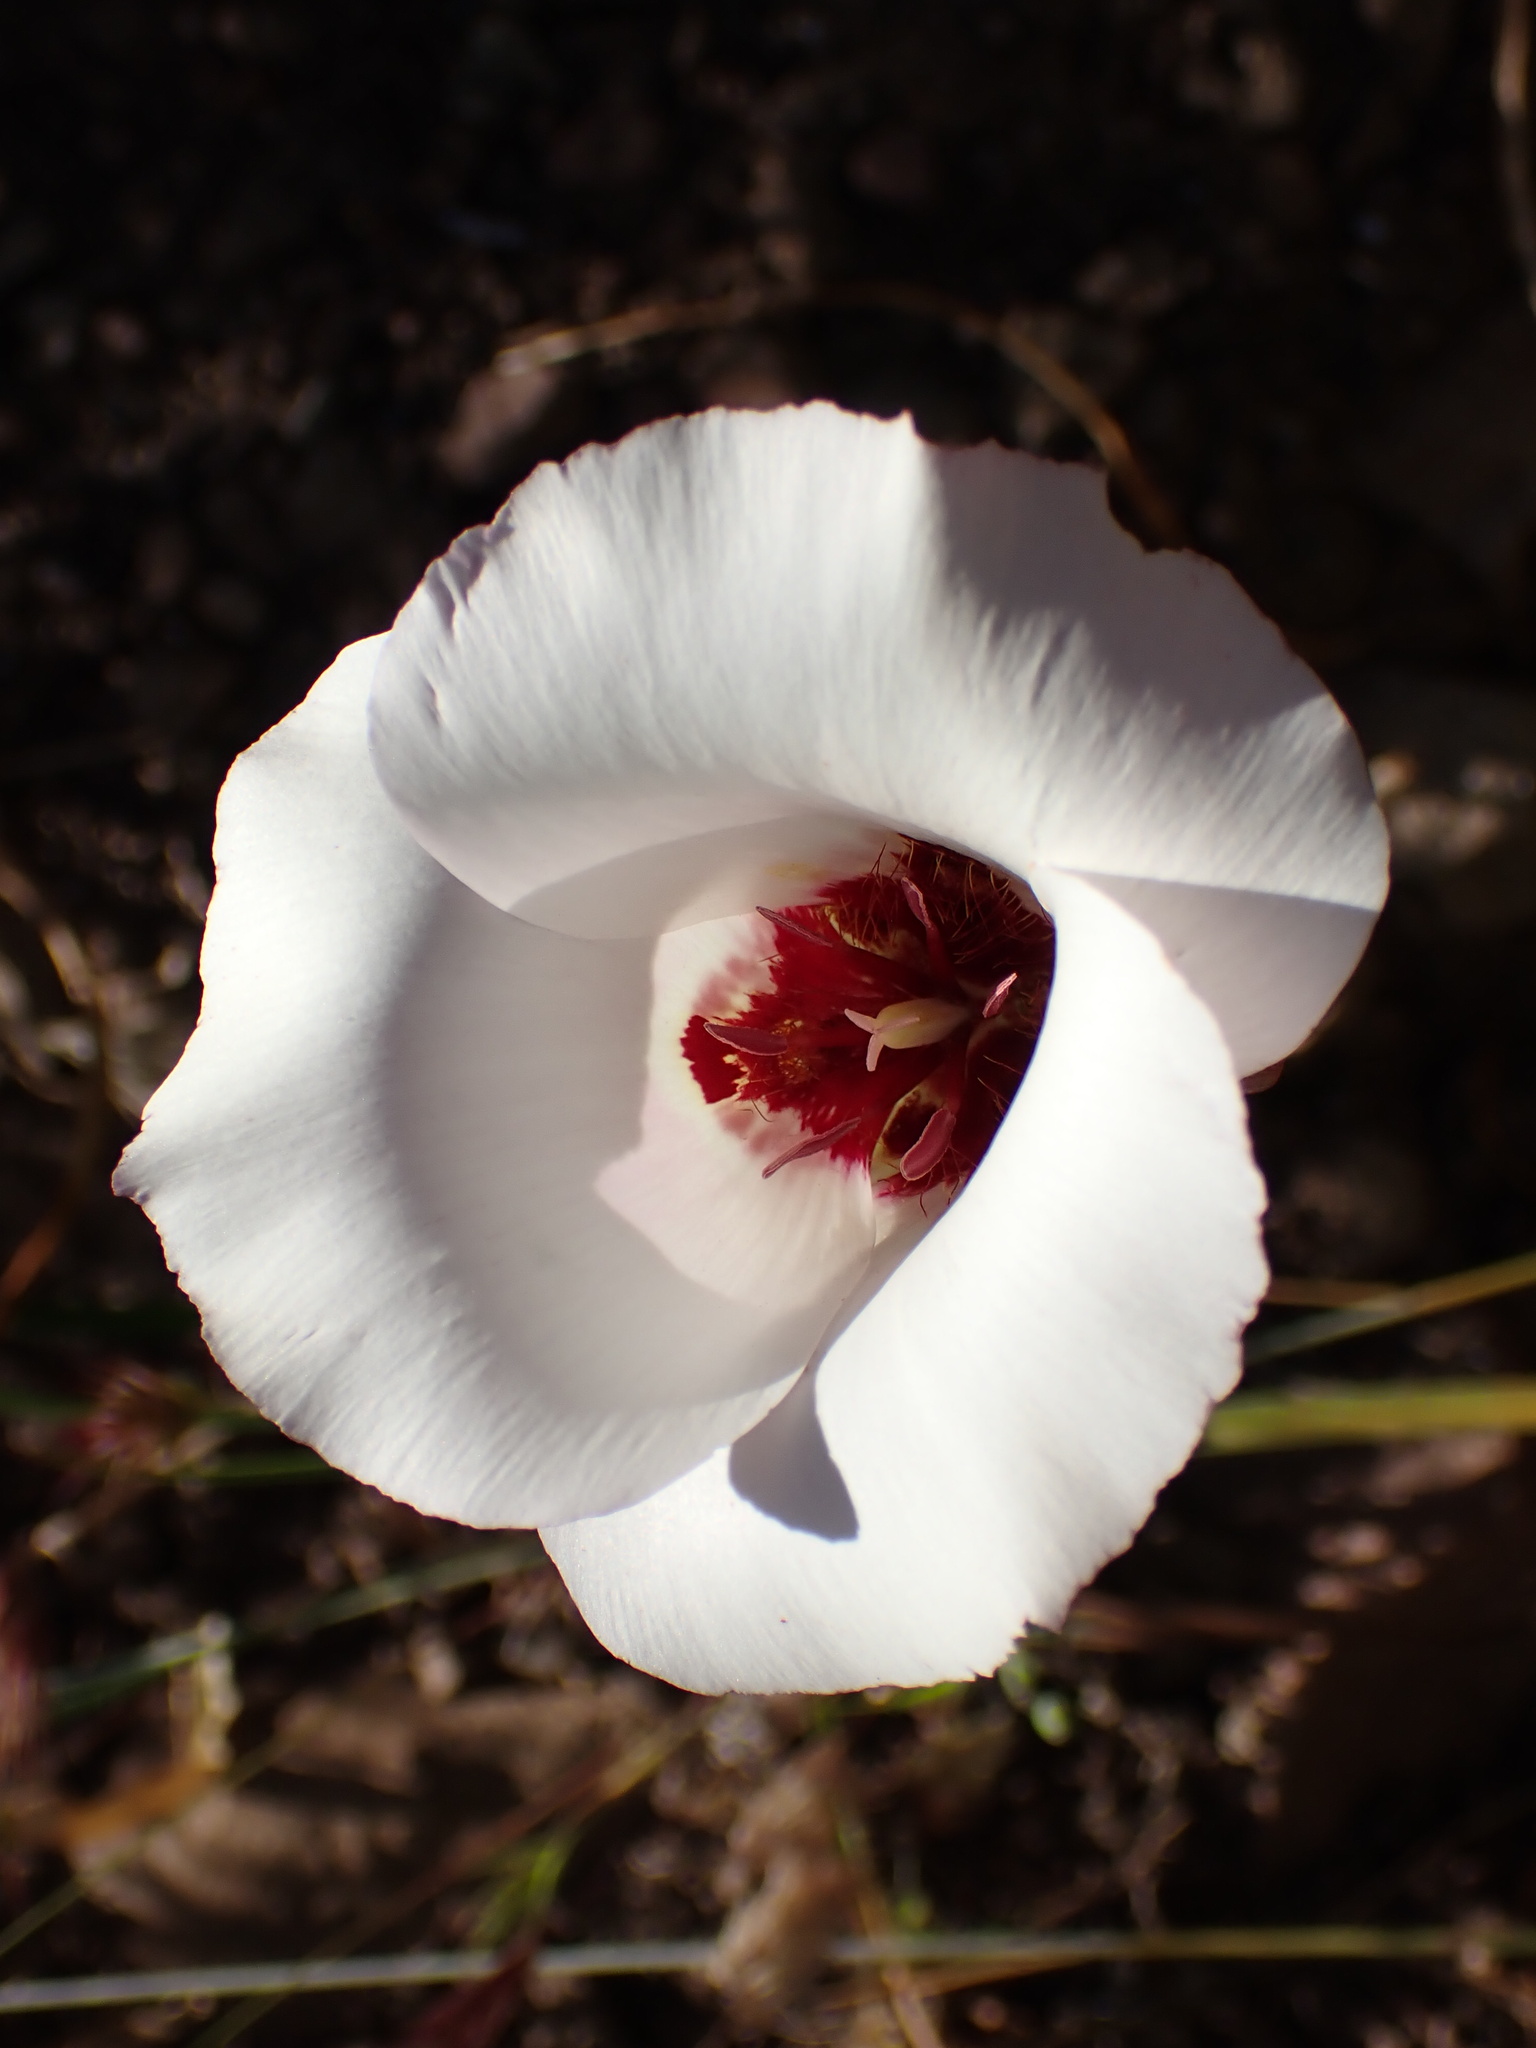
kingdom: Plantae
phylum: Tracheophyta
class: Liliopsida
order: Liliales
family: Liliaceae
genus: Calochortus
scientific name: Calochortus simulans
